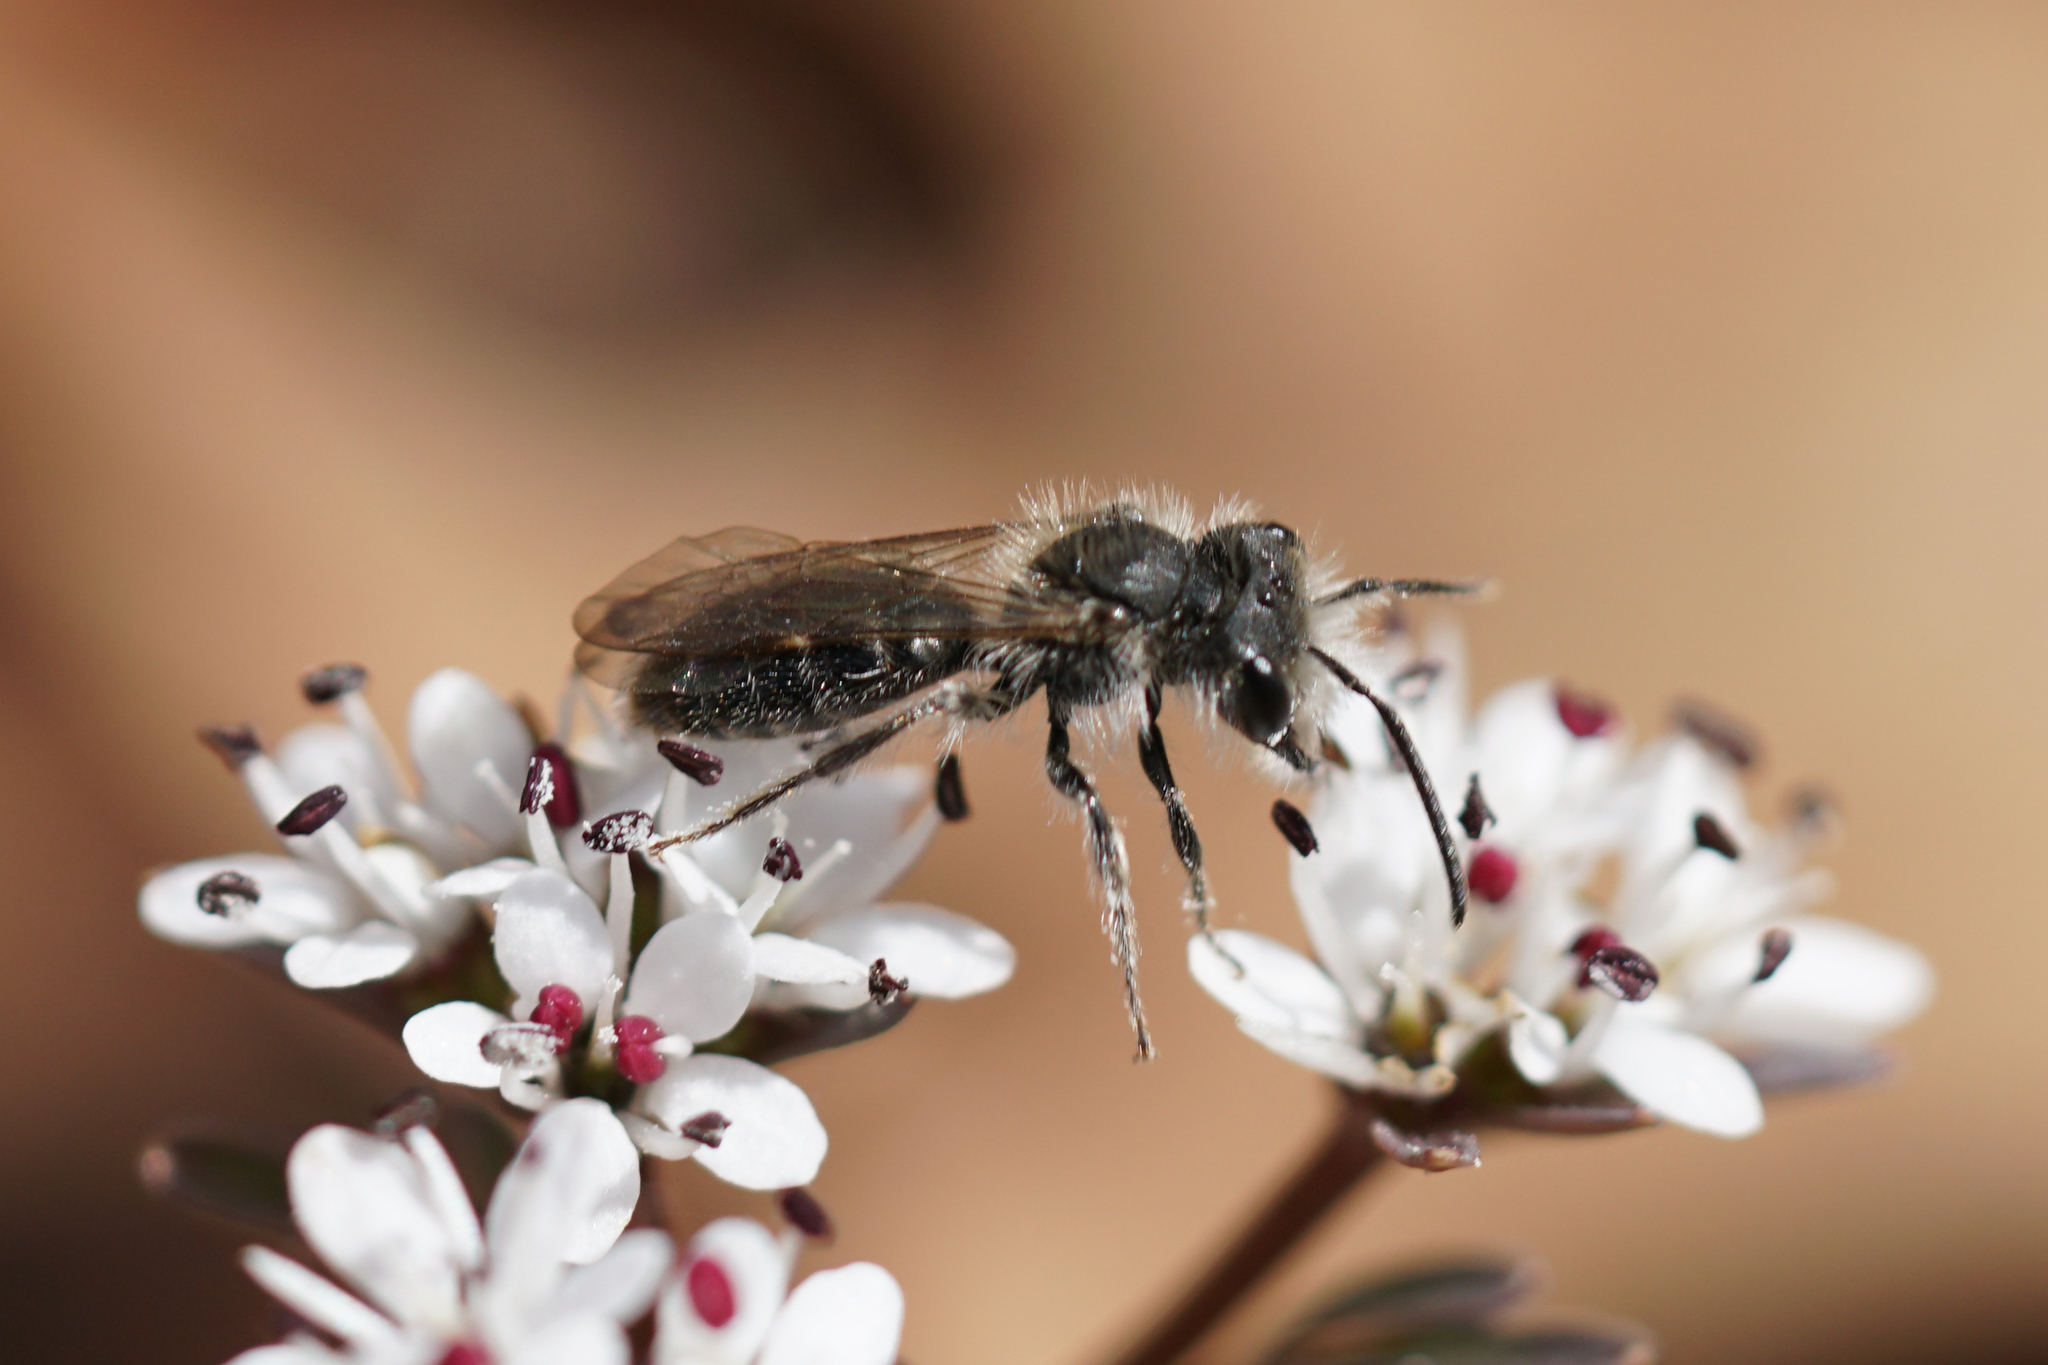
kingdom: Animalia
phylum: Arthropoda
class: Insecta
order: Hymenoptera
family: Andrenidae
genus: Andrena
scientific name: Andrena
